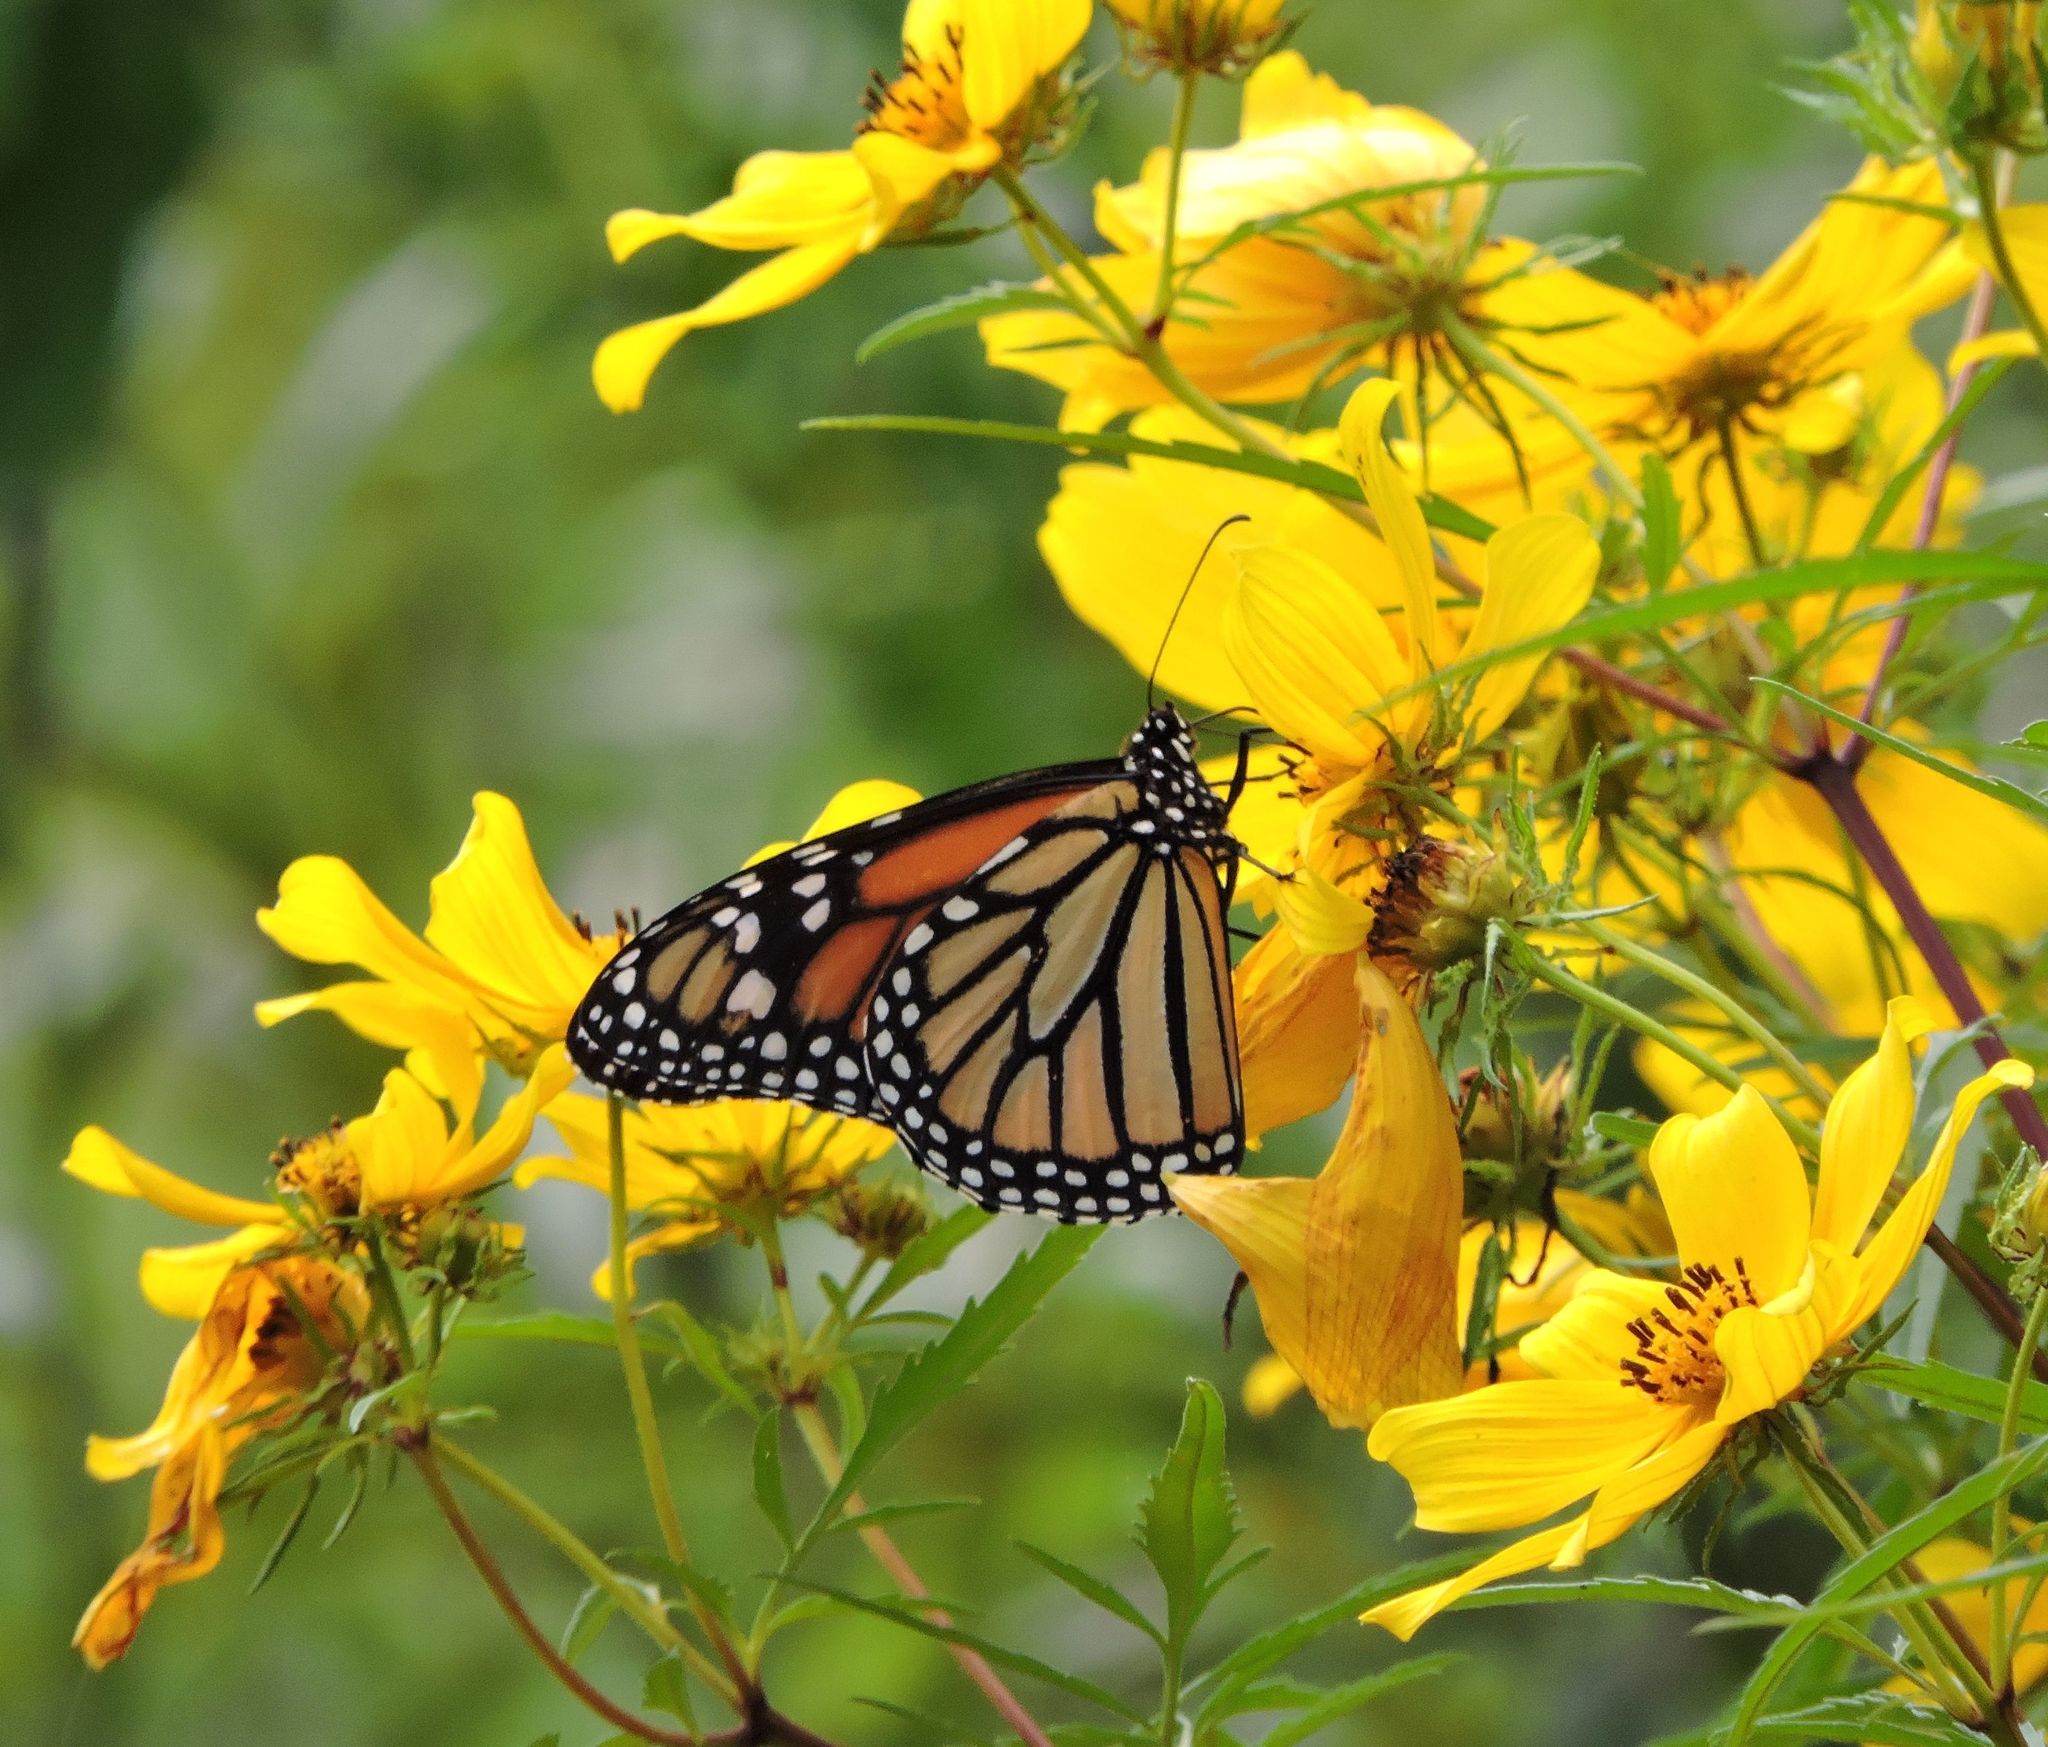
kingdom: Animalia
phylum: Arthropoda
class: Insecta
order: Lepidoptera
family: Nymphalidae
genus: Danaus
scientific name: Danaus plexippus
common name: Monarch
